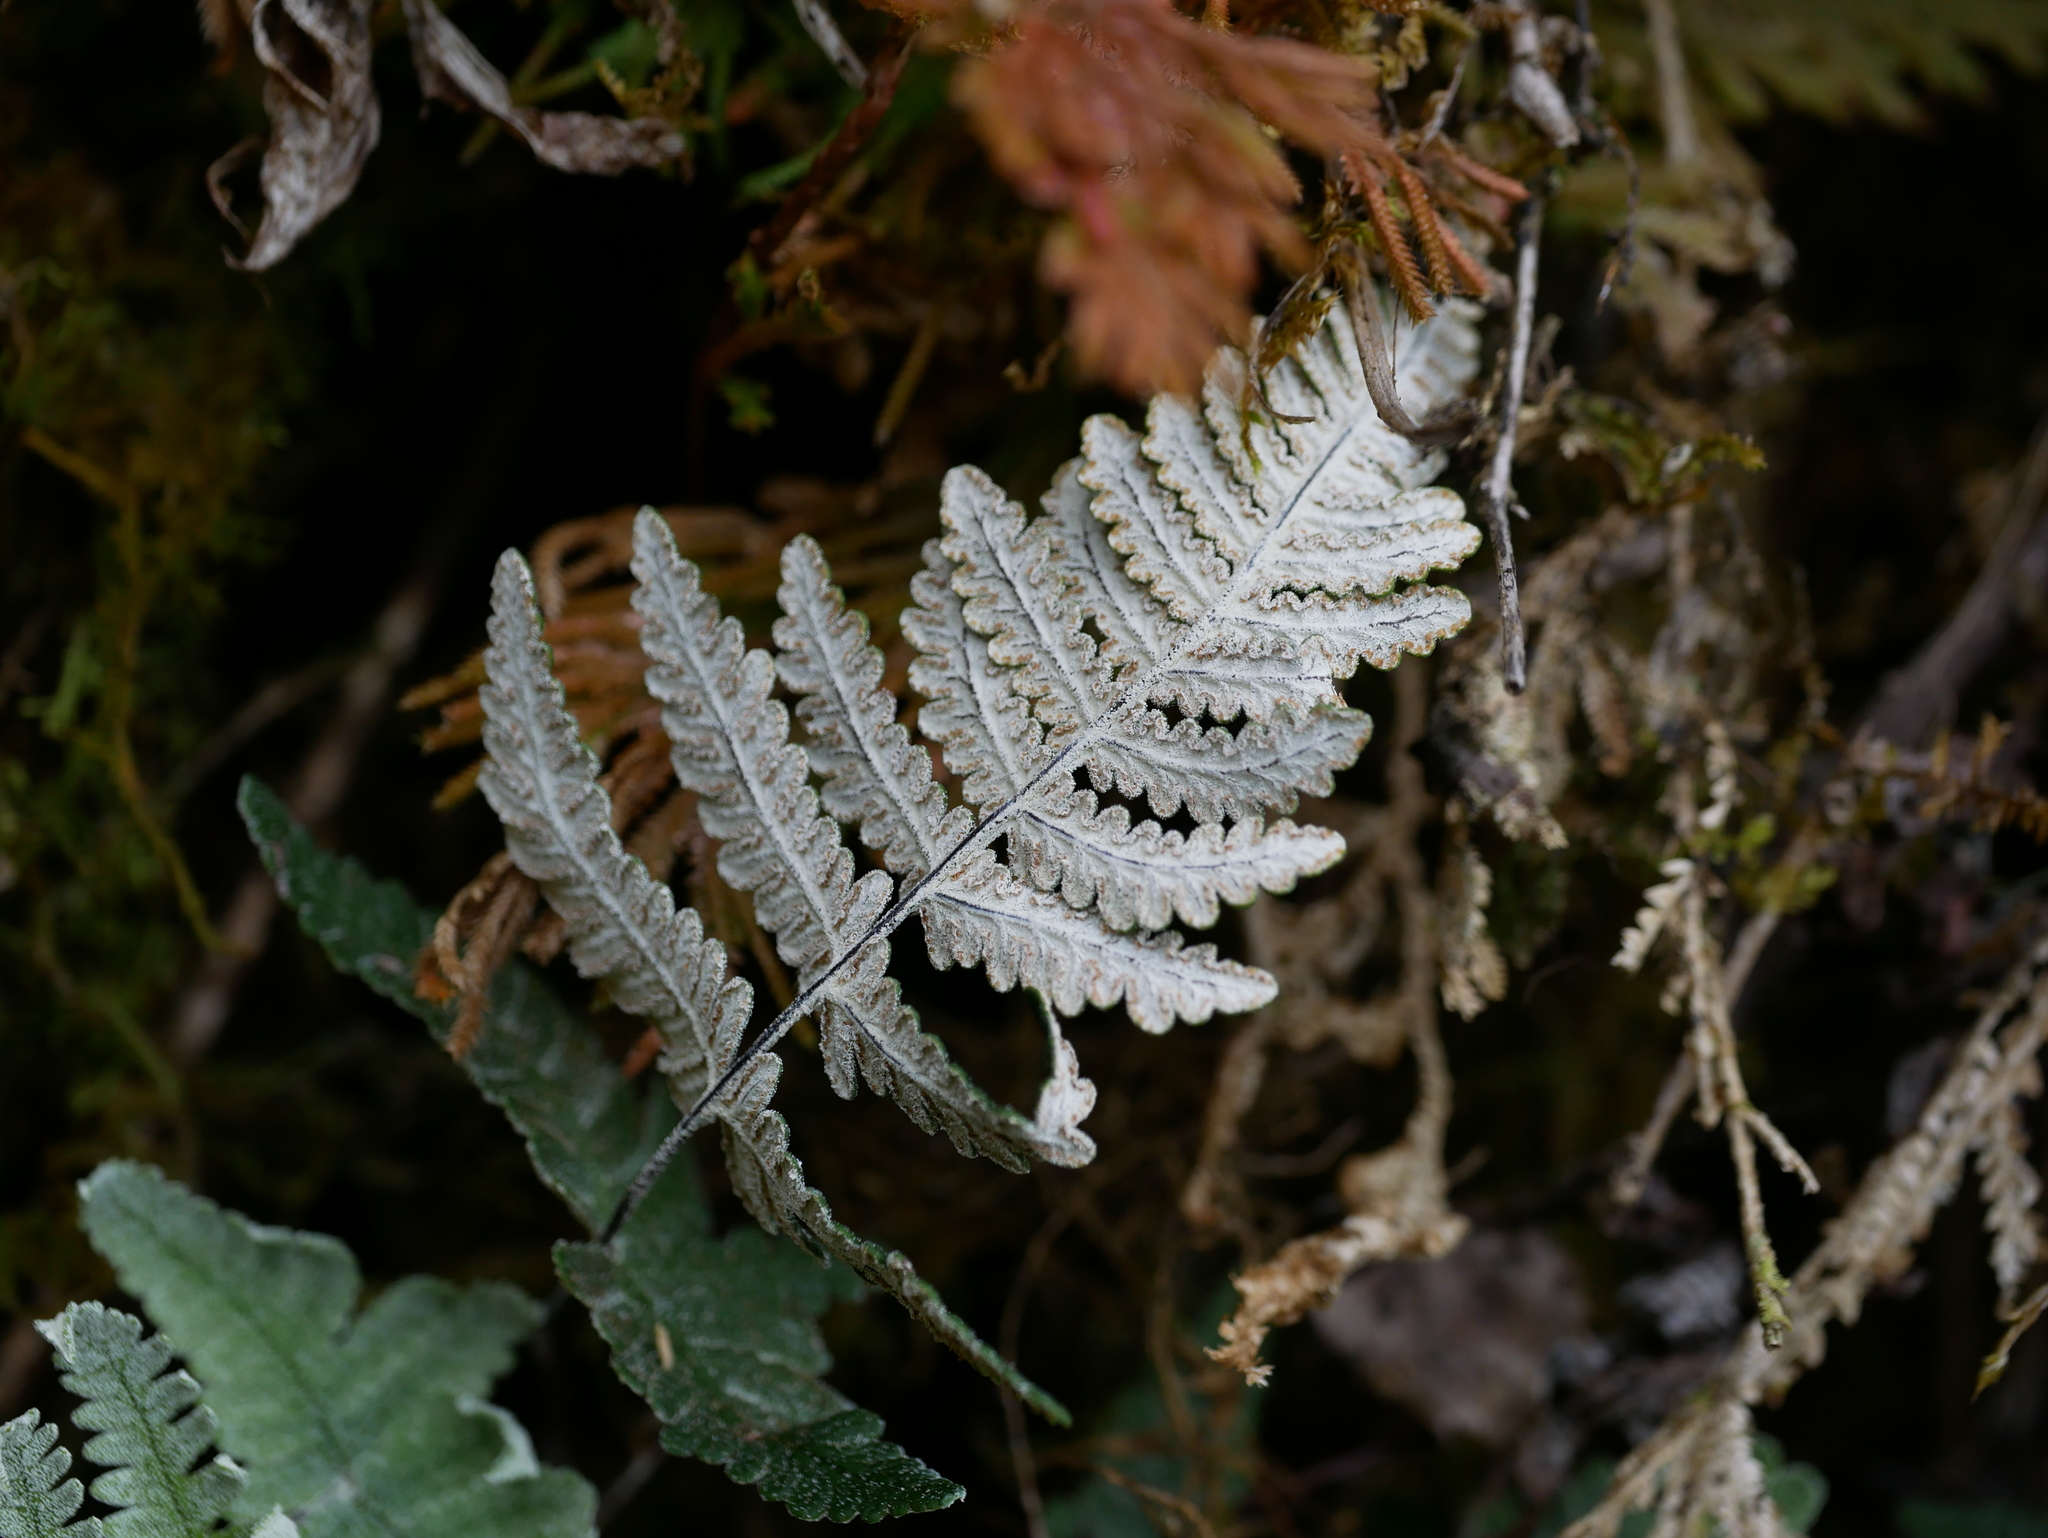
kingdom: Plantae
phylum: Tracheophyta
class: Polypodiopsida
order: Polypodiales
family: Pteridaceae
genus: Aleuritopteris
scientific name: Aleuritopteris krameri
